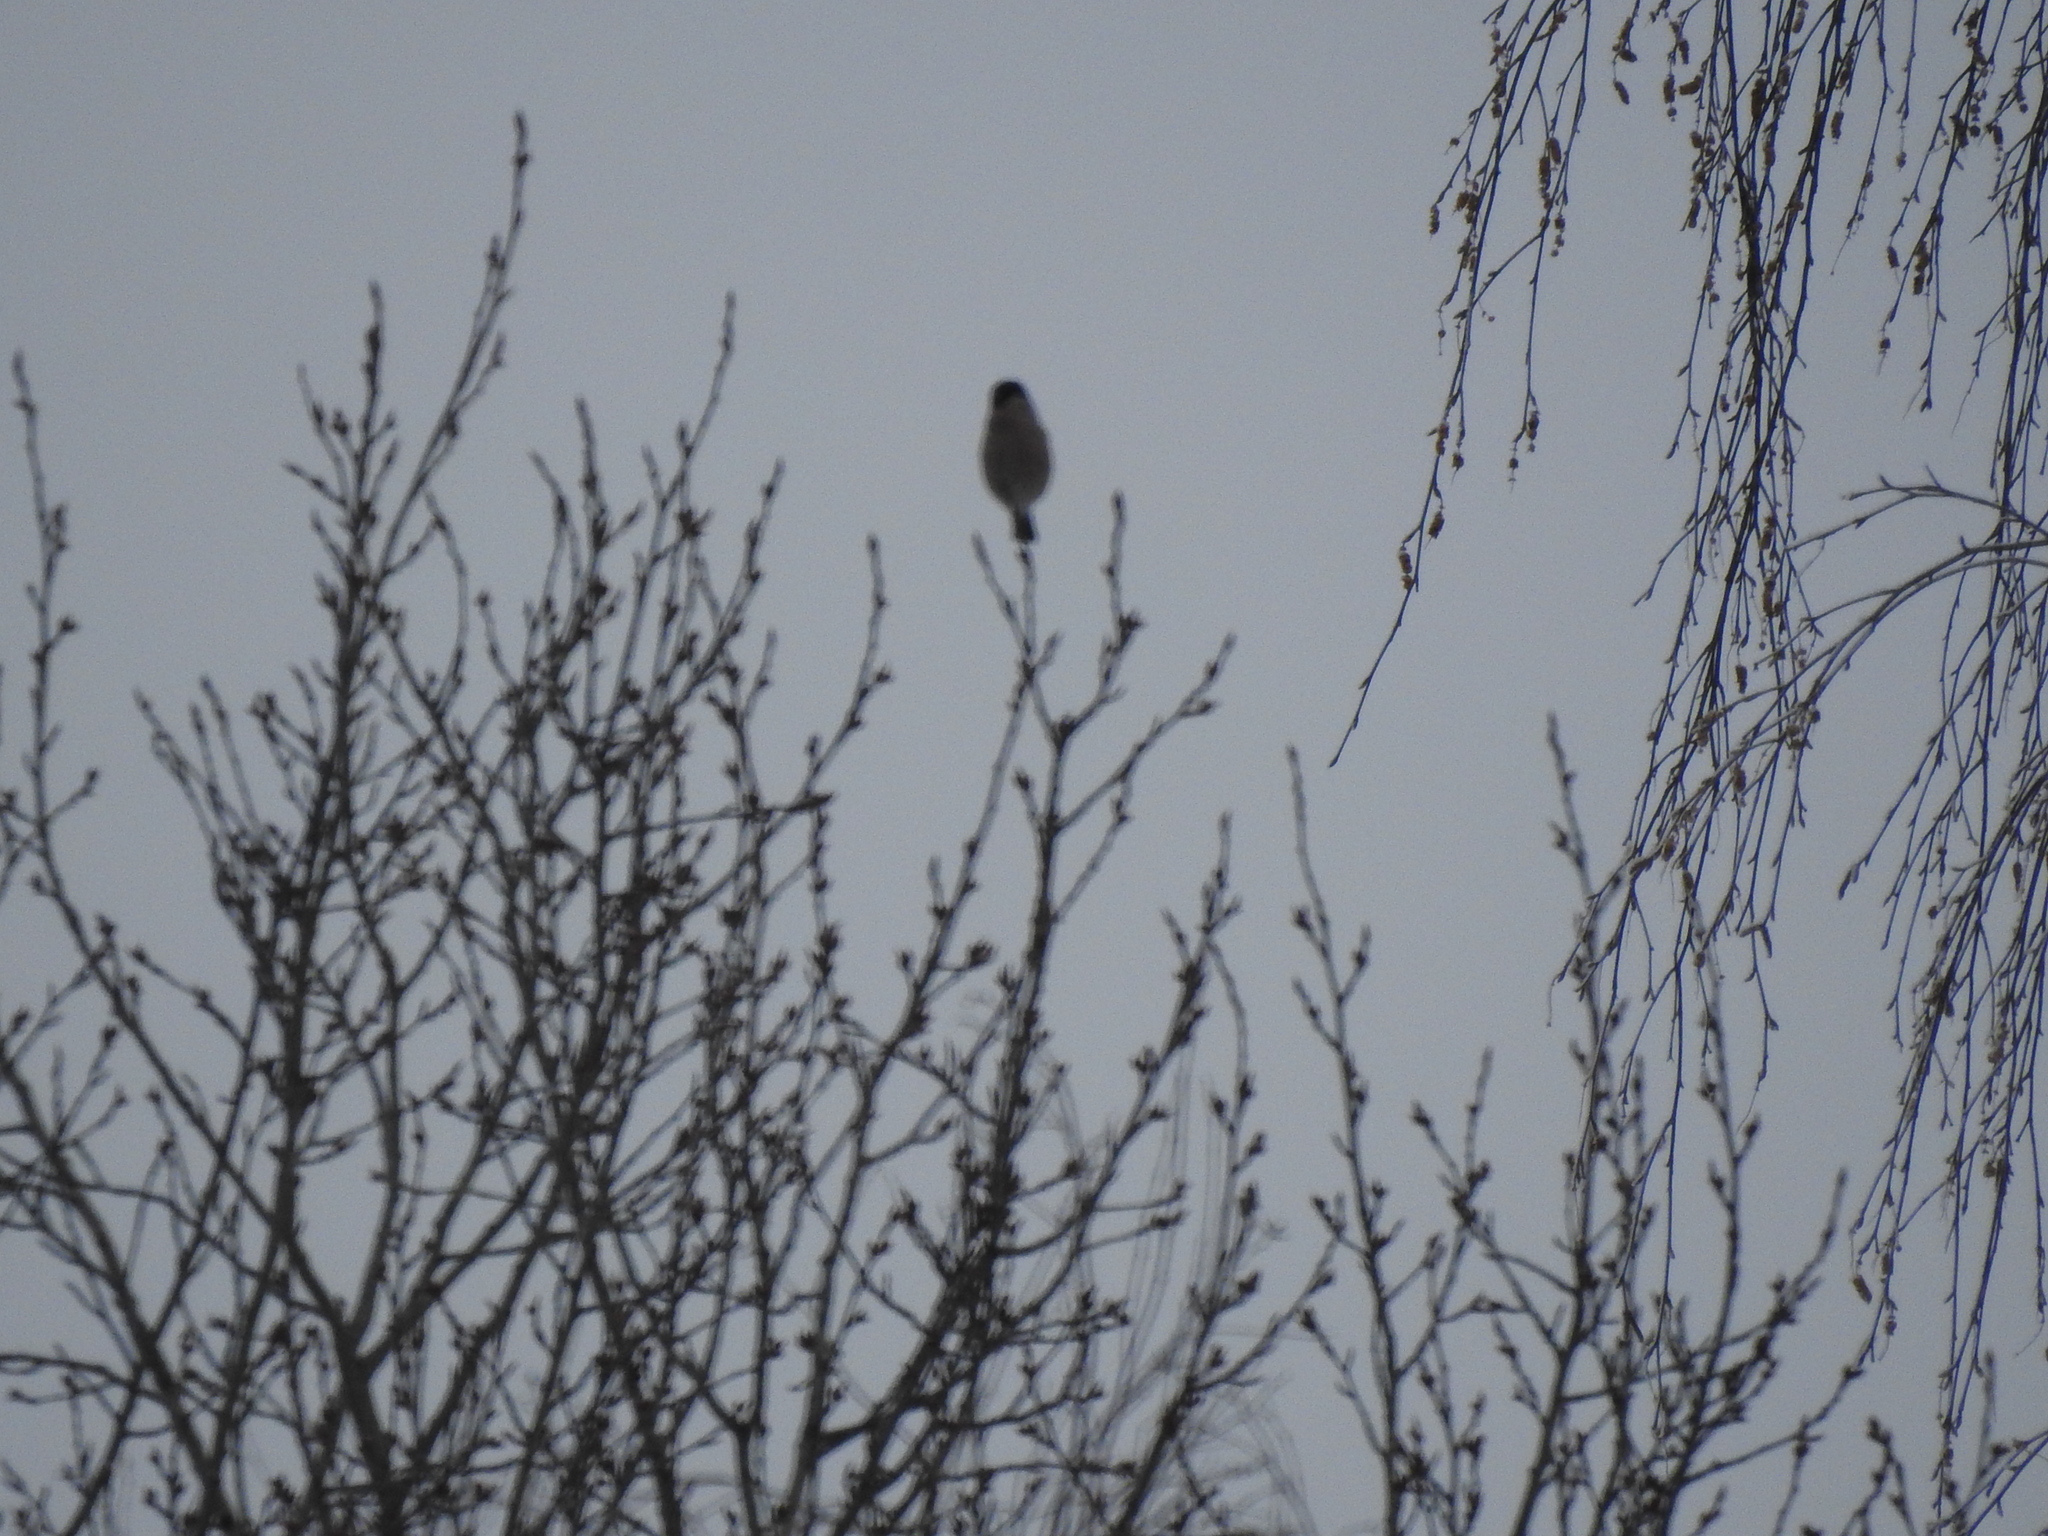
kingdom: Animalia
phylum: Chordata
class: Aves
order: Passeriformes
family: Fringillidae
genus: Pyrrhula
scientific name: Pyrrhula pyrrhula
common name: Eurasian bullfinch
